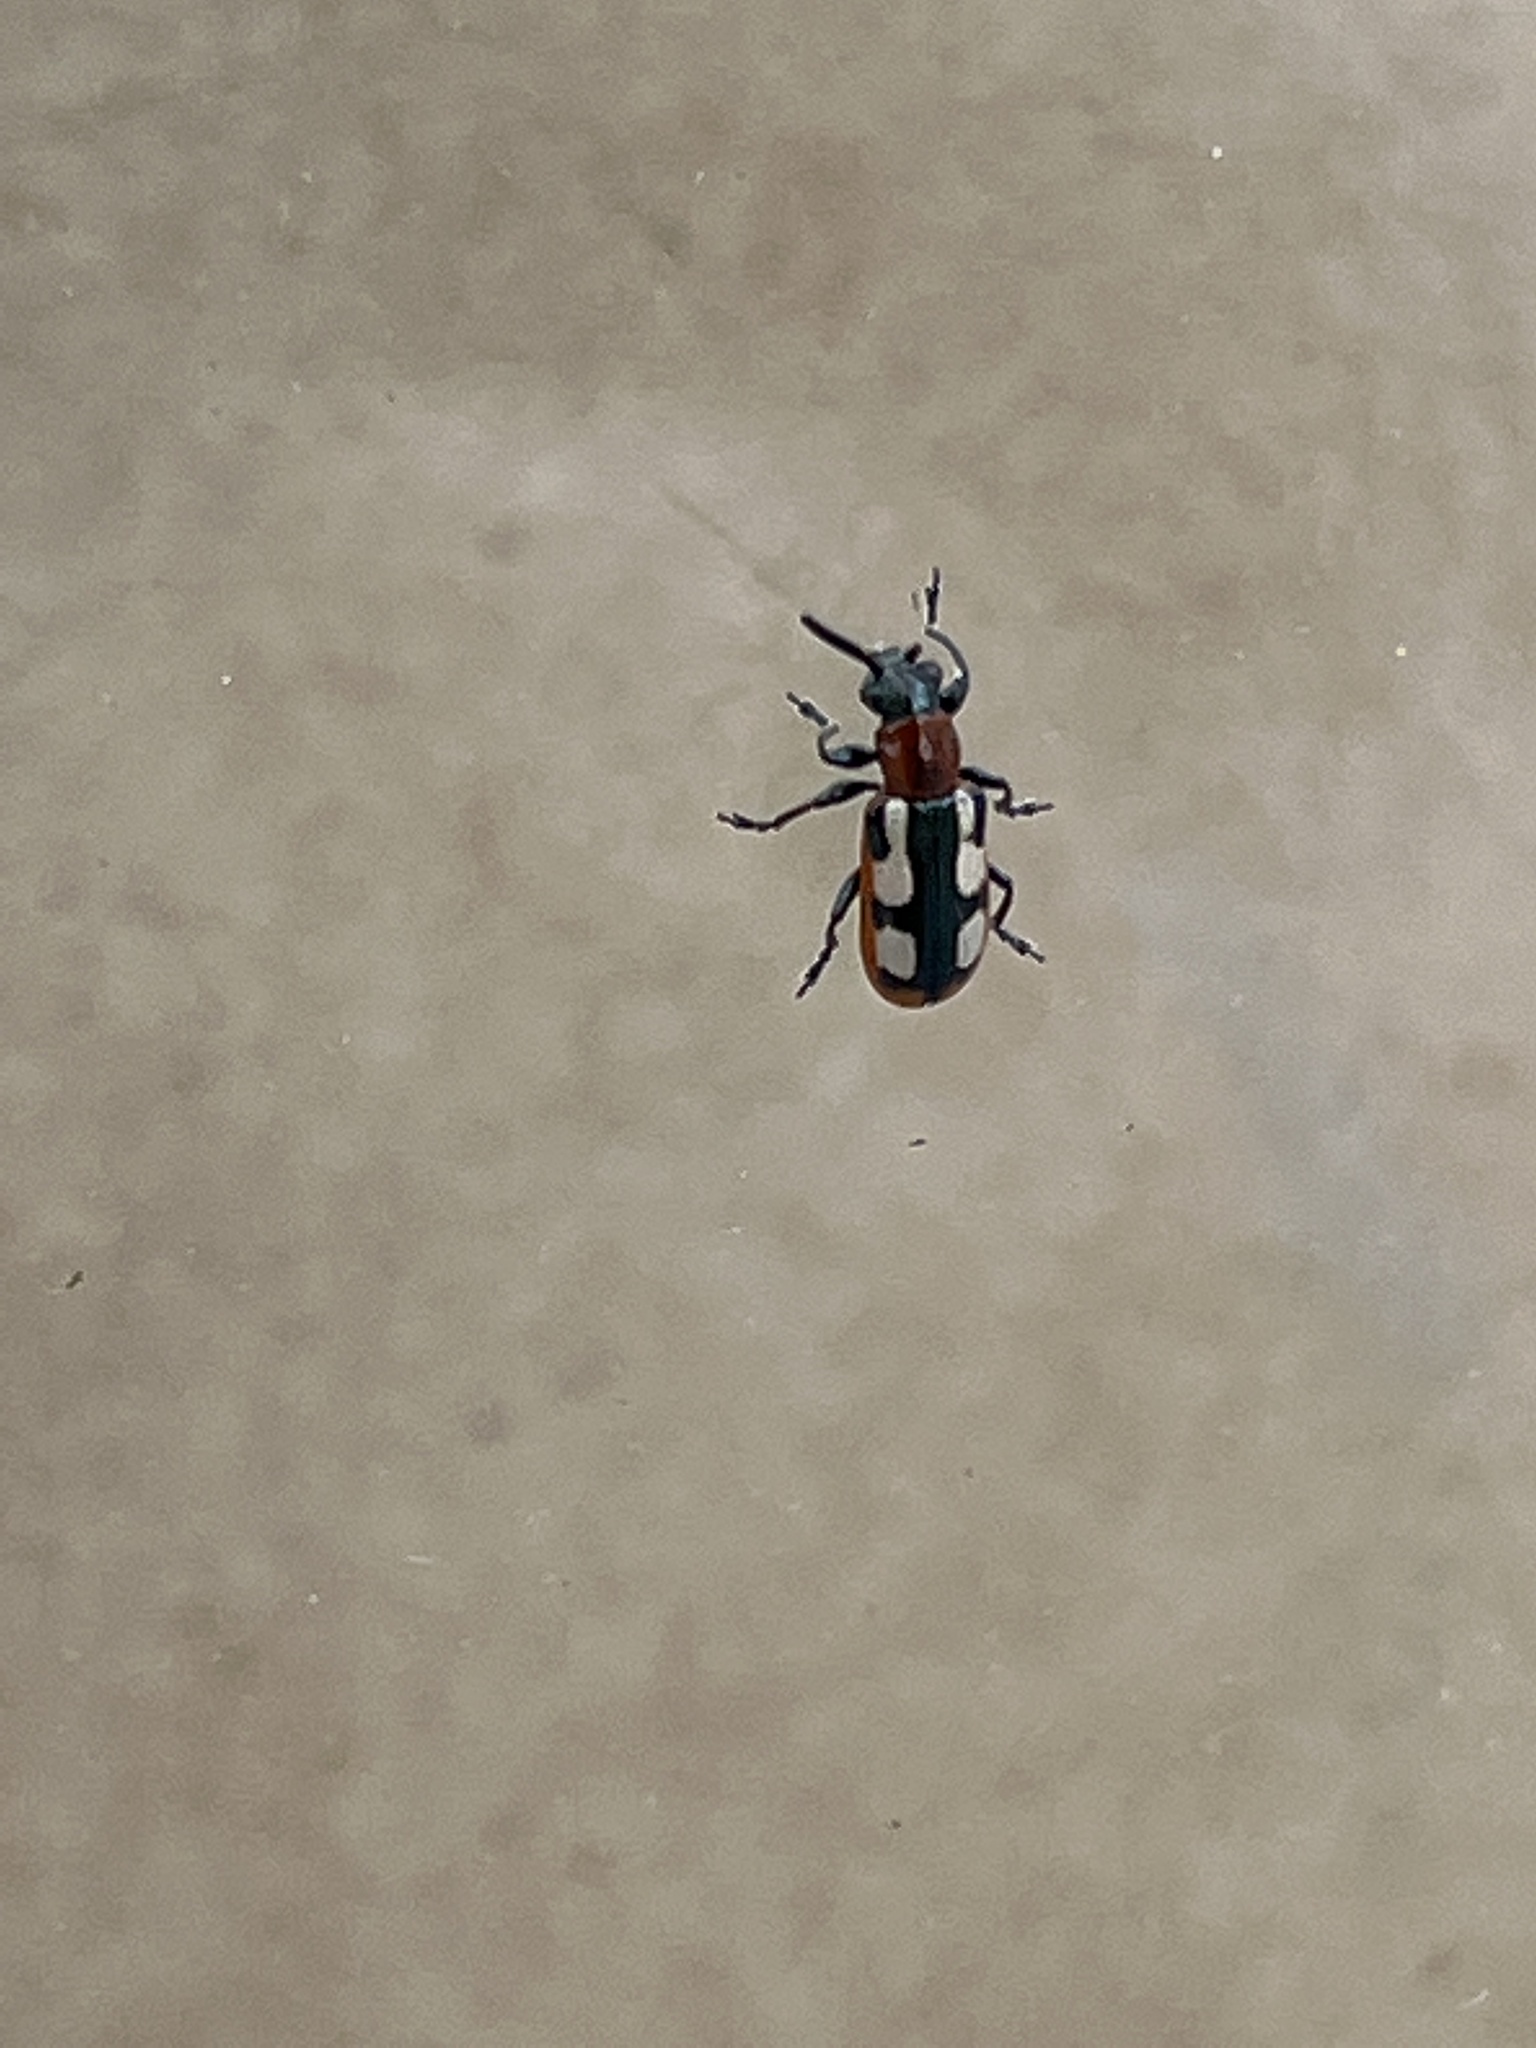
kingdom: Animalia
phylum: Arthropoda
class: Insecta
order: Coleoptera
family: Chrysomelidae
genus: Crioceris
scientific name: Crioceris asparagi
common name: Asparagus beetle
